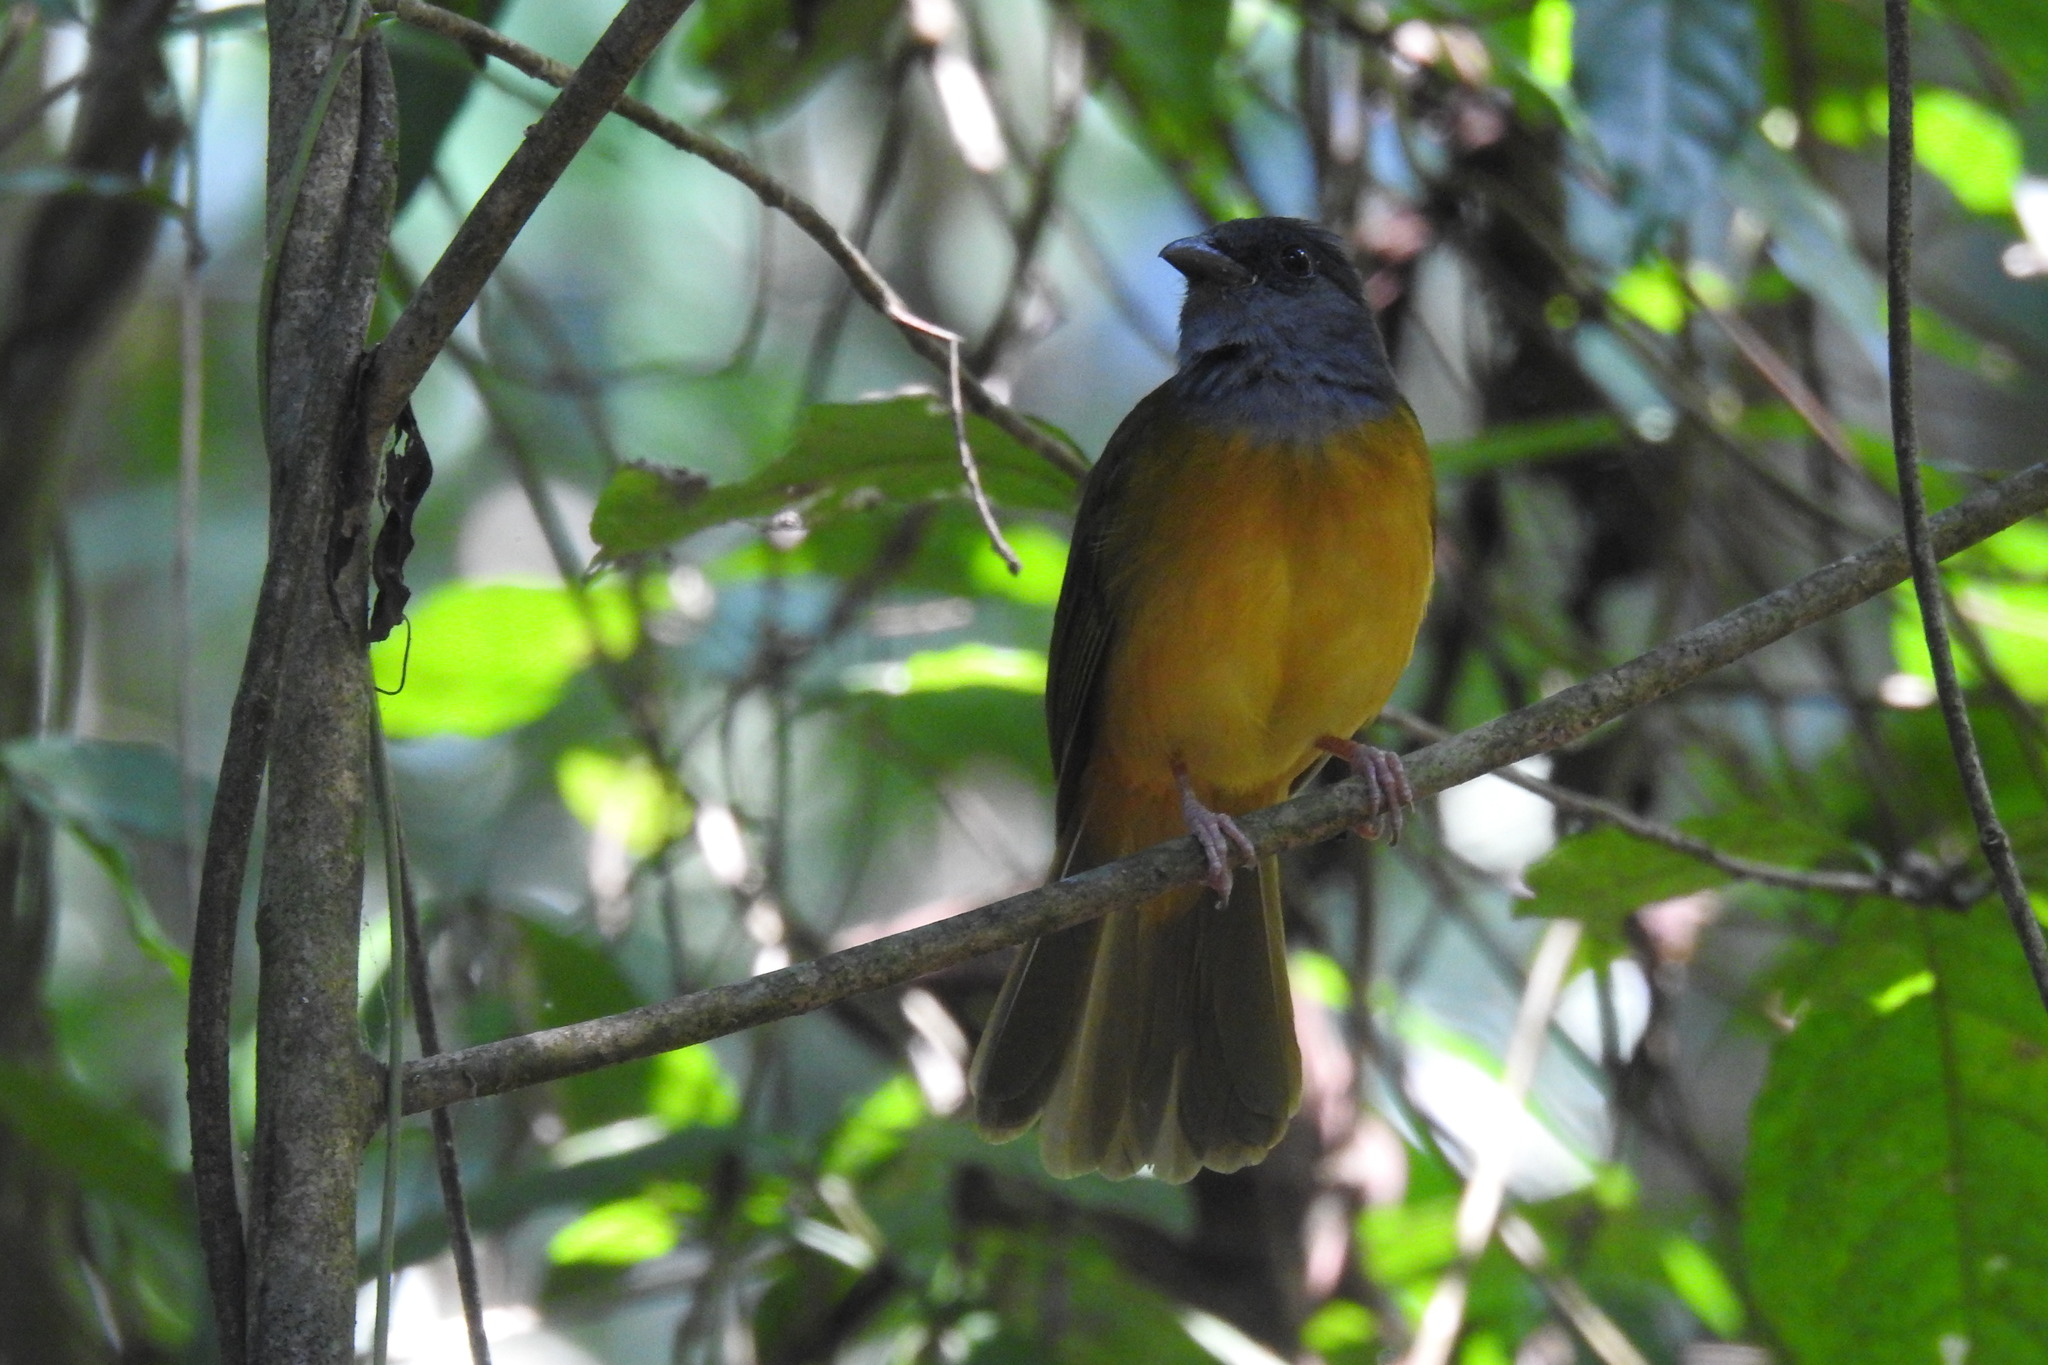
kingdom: Animalia
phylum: Chordata
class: Aves
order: Passeriformes
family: Thraupidae
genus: Eucometis
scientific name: Eucometis penicillata
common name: Grey-headed tanager
